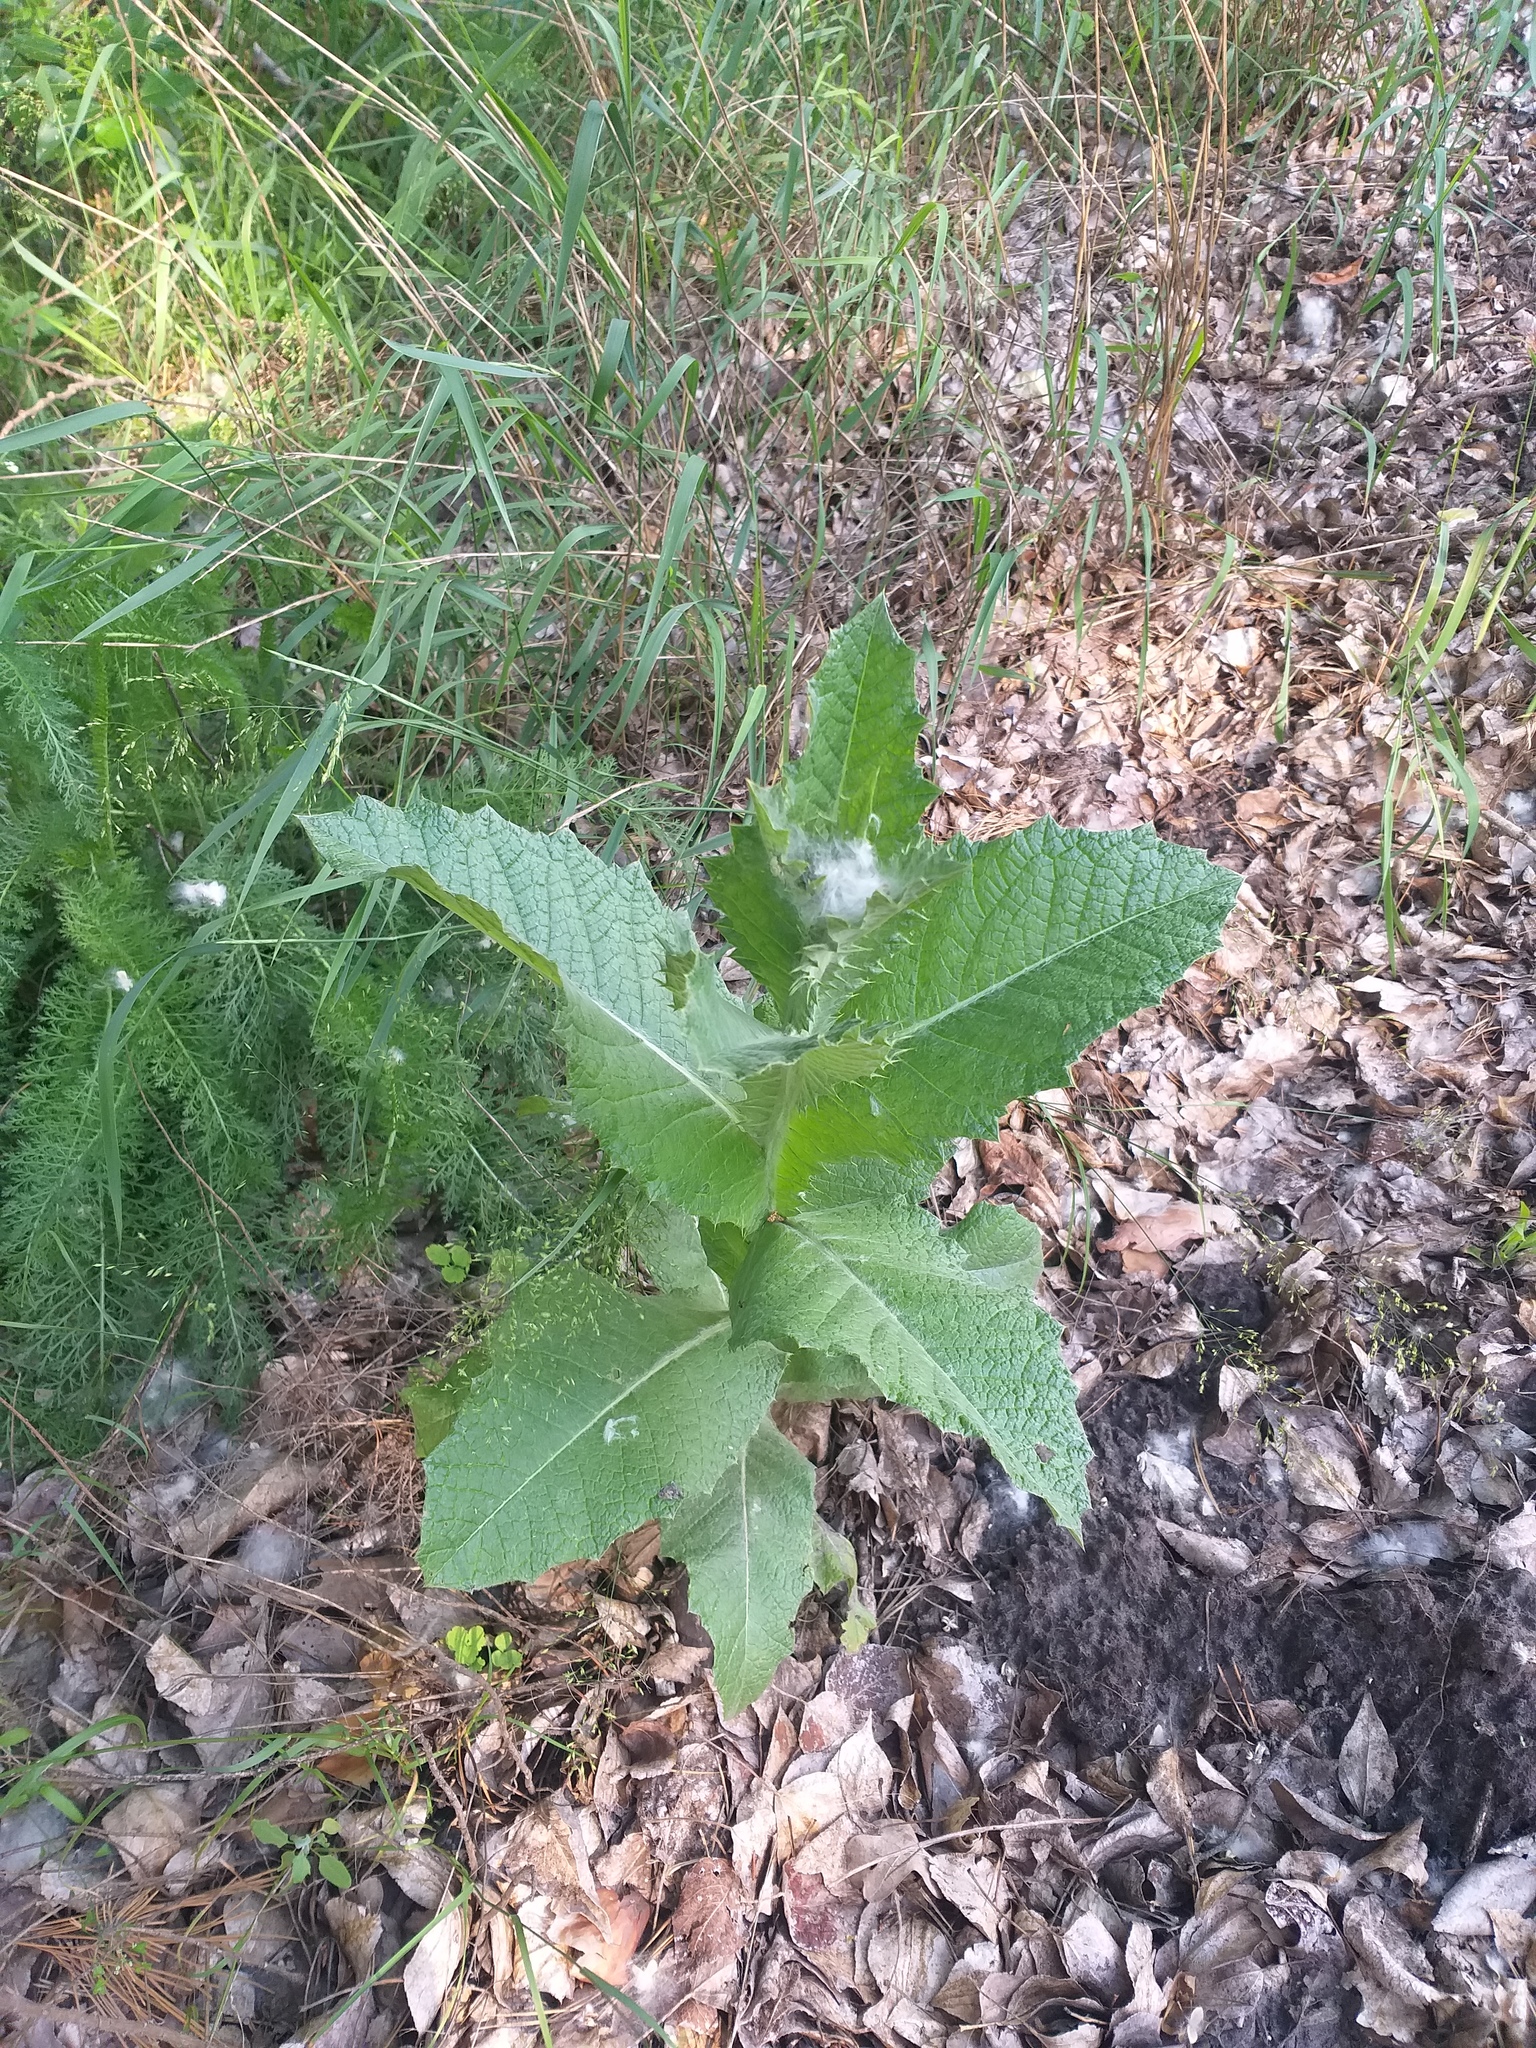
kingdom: Plantae
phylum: Tracheophyta
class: Magnoliopsida
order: Asterales
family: Asteraceae
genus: Onopordum
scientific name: Onopordum acanthium
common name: Scotch thistle
